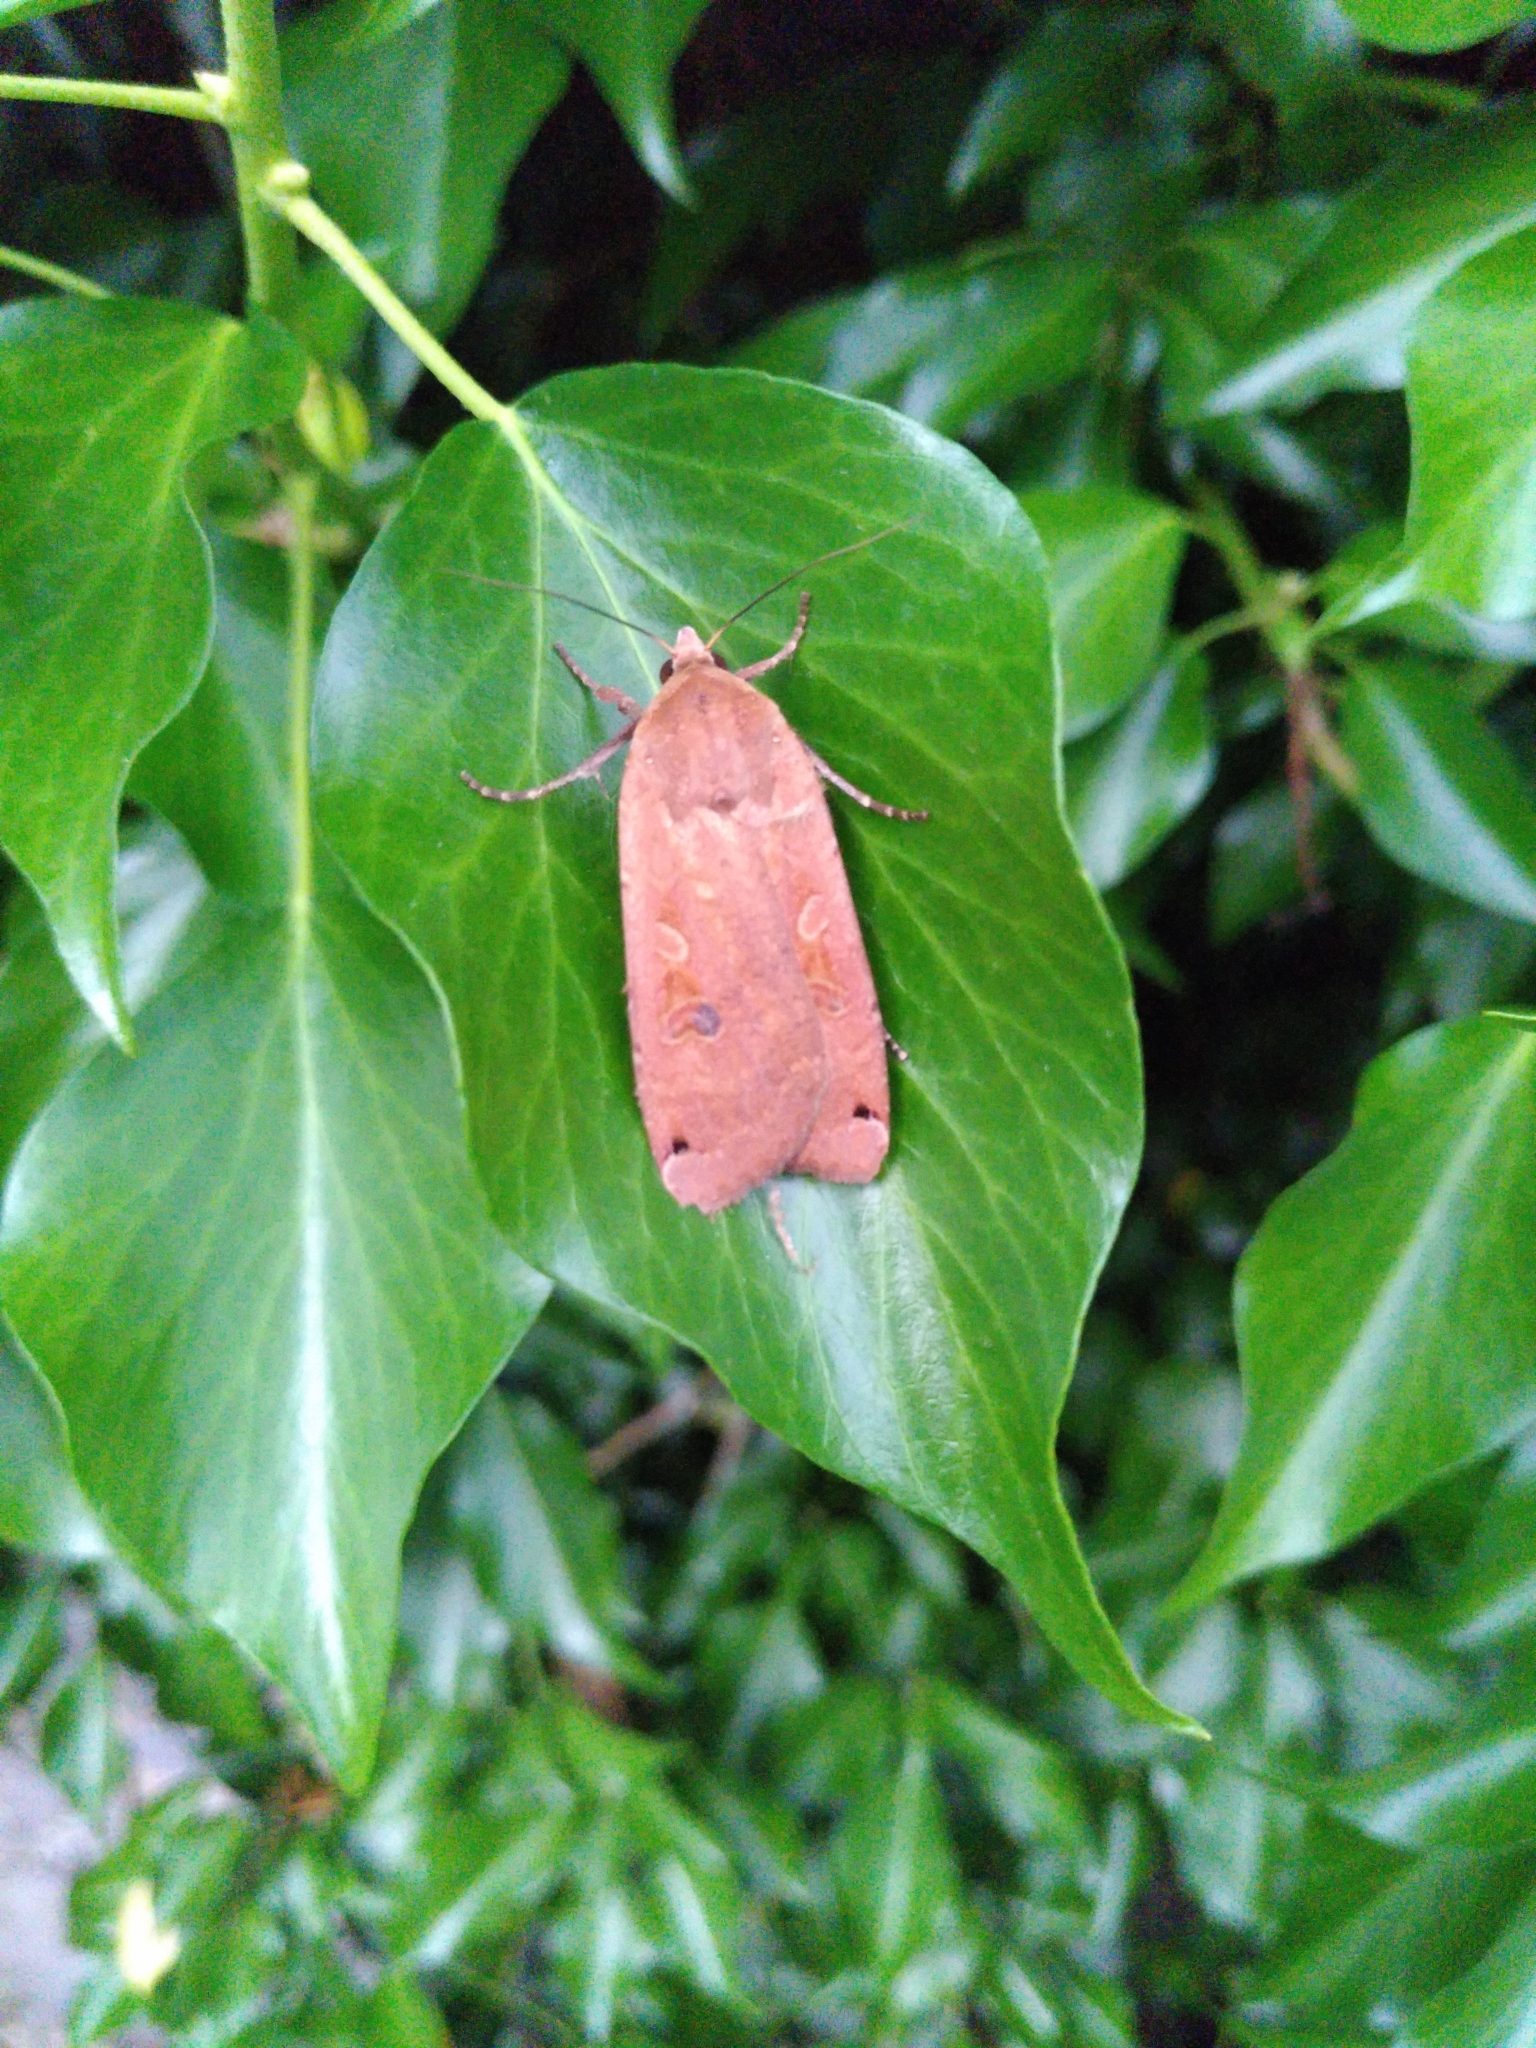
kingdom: Animalia
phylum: Arthropoda
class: Insecta
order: Lepidoptera
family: Noctuidae
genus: Noctua
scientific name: Noctua pronuba
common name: Large yellow underwing
